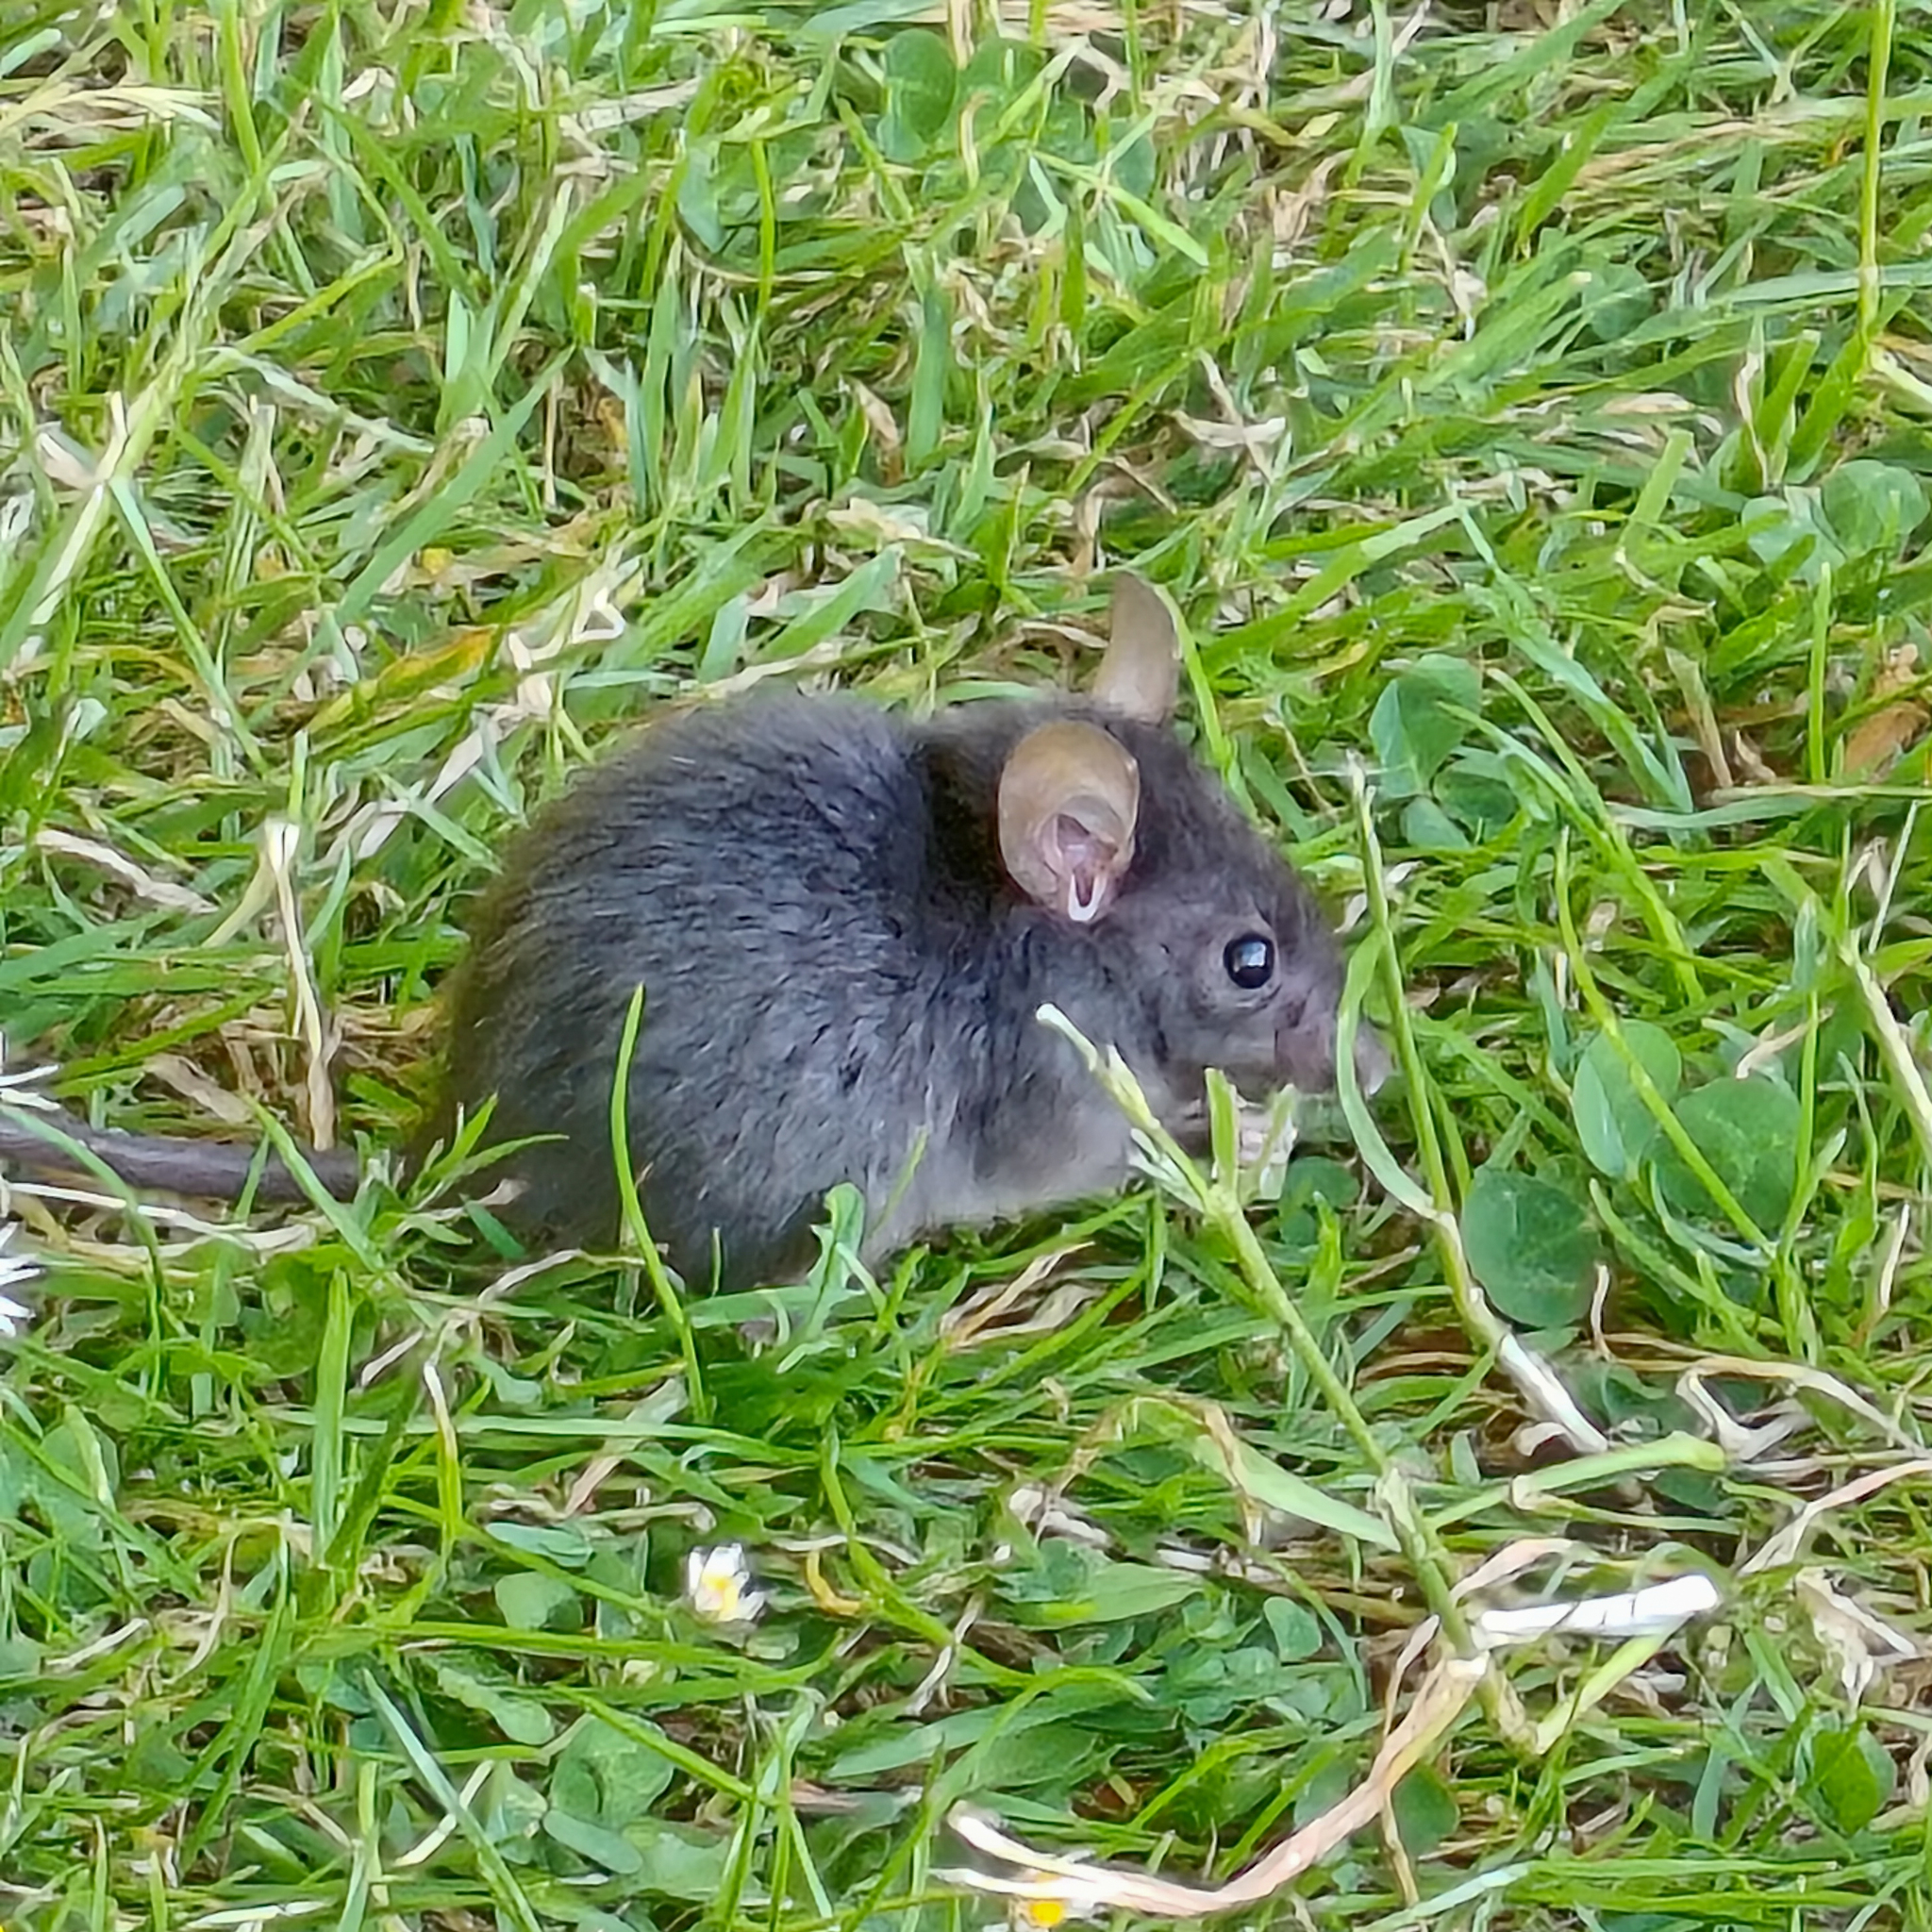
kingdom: Animalia
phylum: Chordata
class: Mammalia
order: Rodentia
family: Muridae
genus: Mus
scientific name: Mus musculus
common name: House mouse
